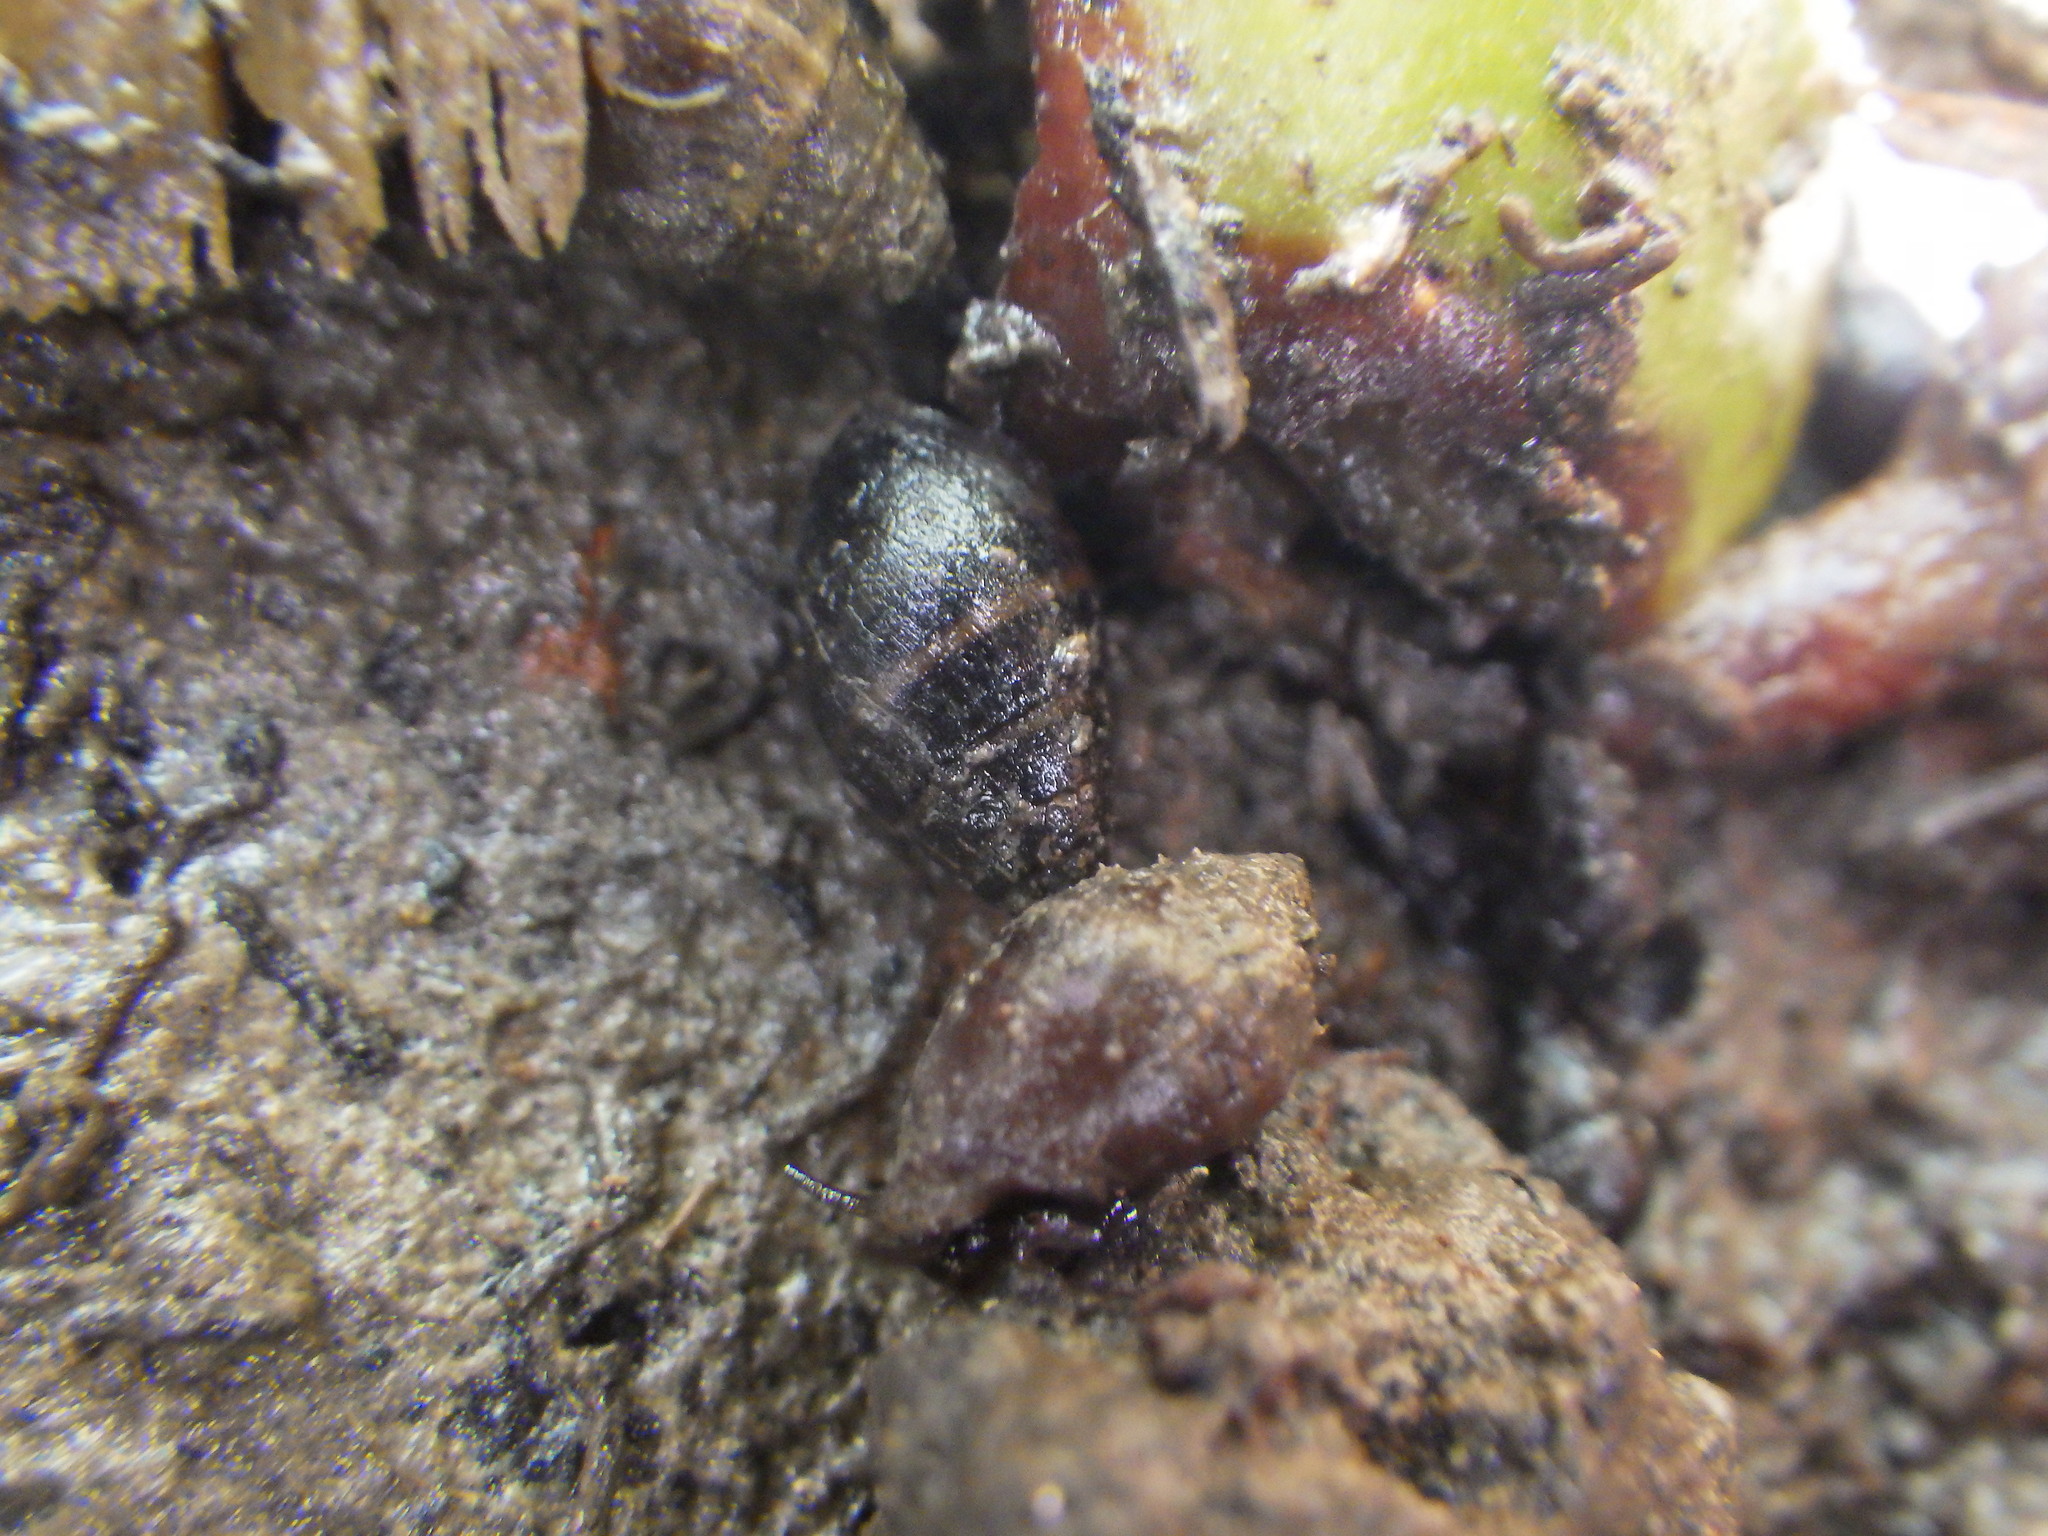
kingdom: Animalia
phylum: Mollusca
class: Gastropoda
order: Ellobiida
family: Ellobiidae
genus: Pleuroloba
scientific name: Pleuroloba costellaris
